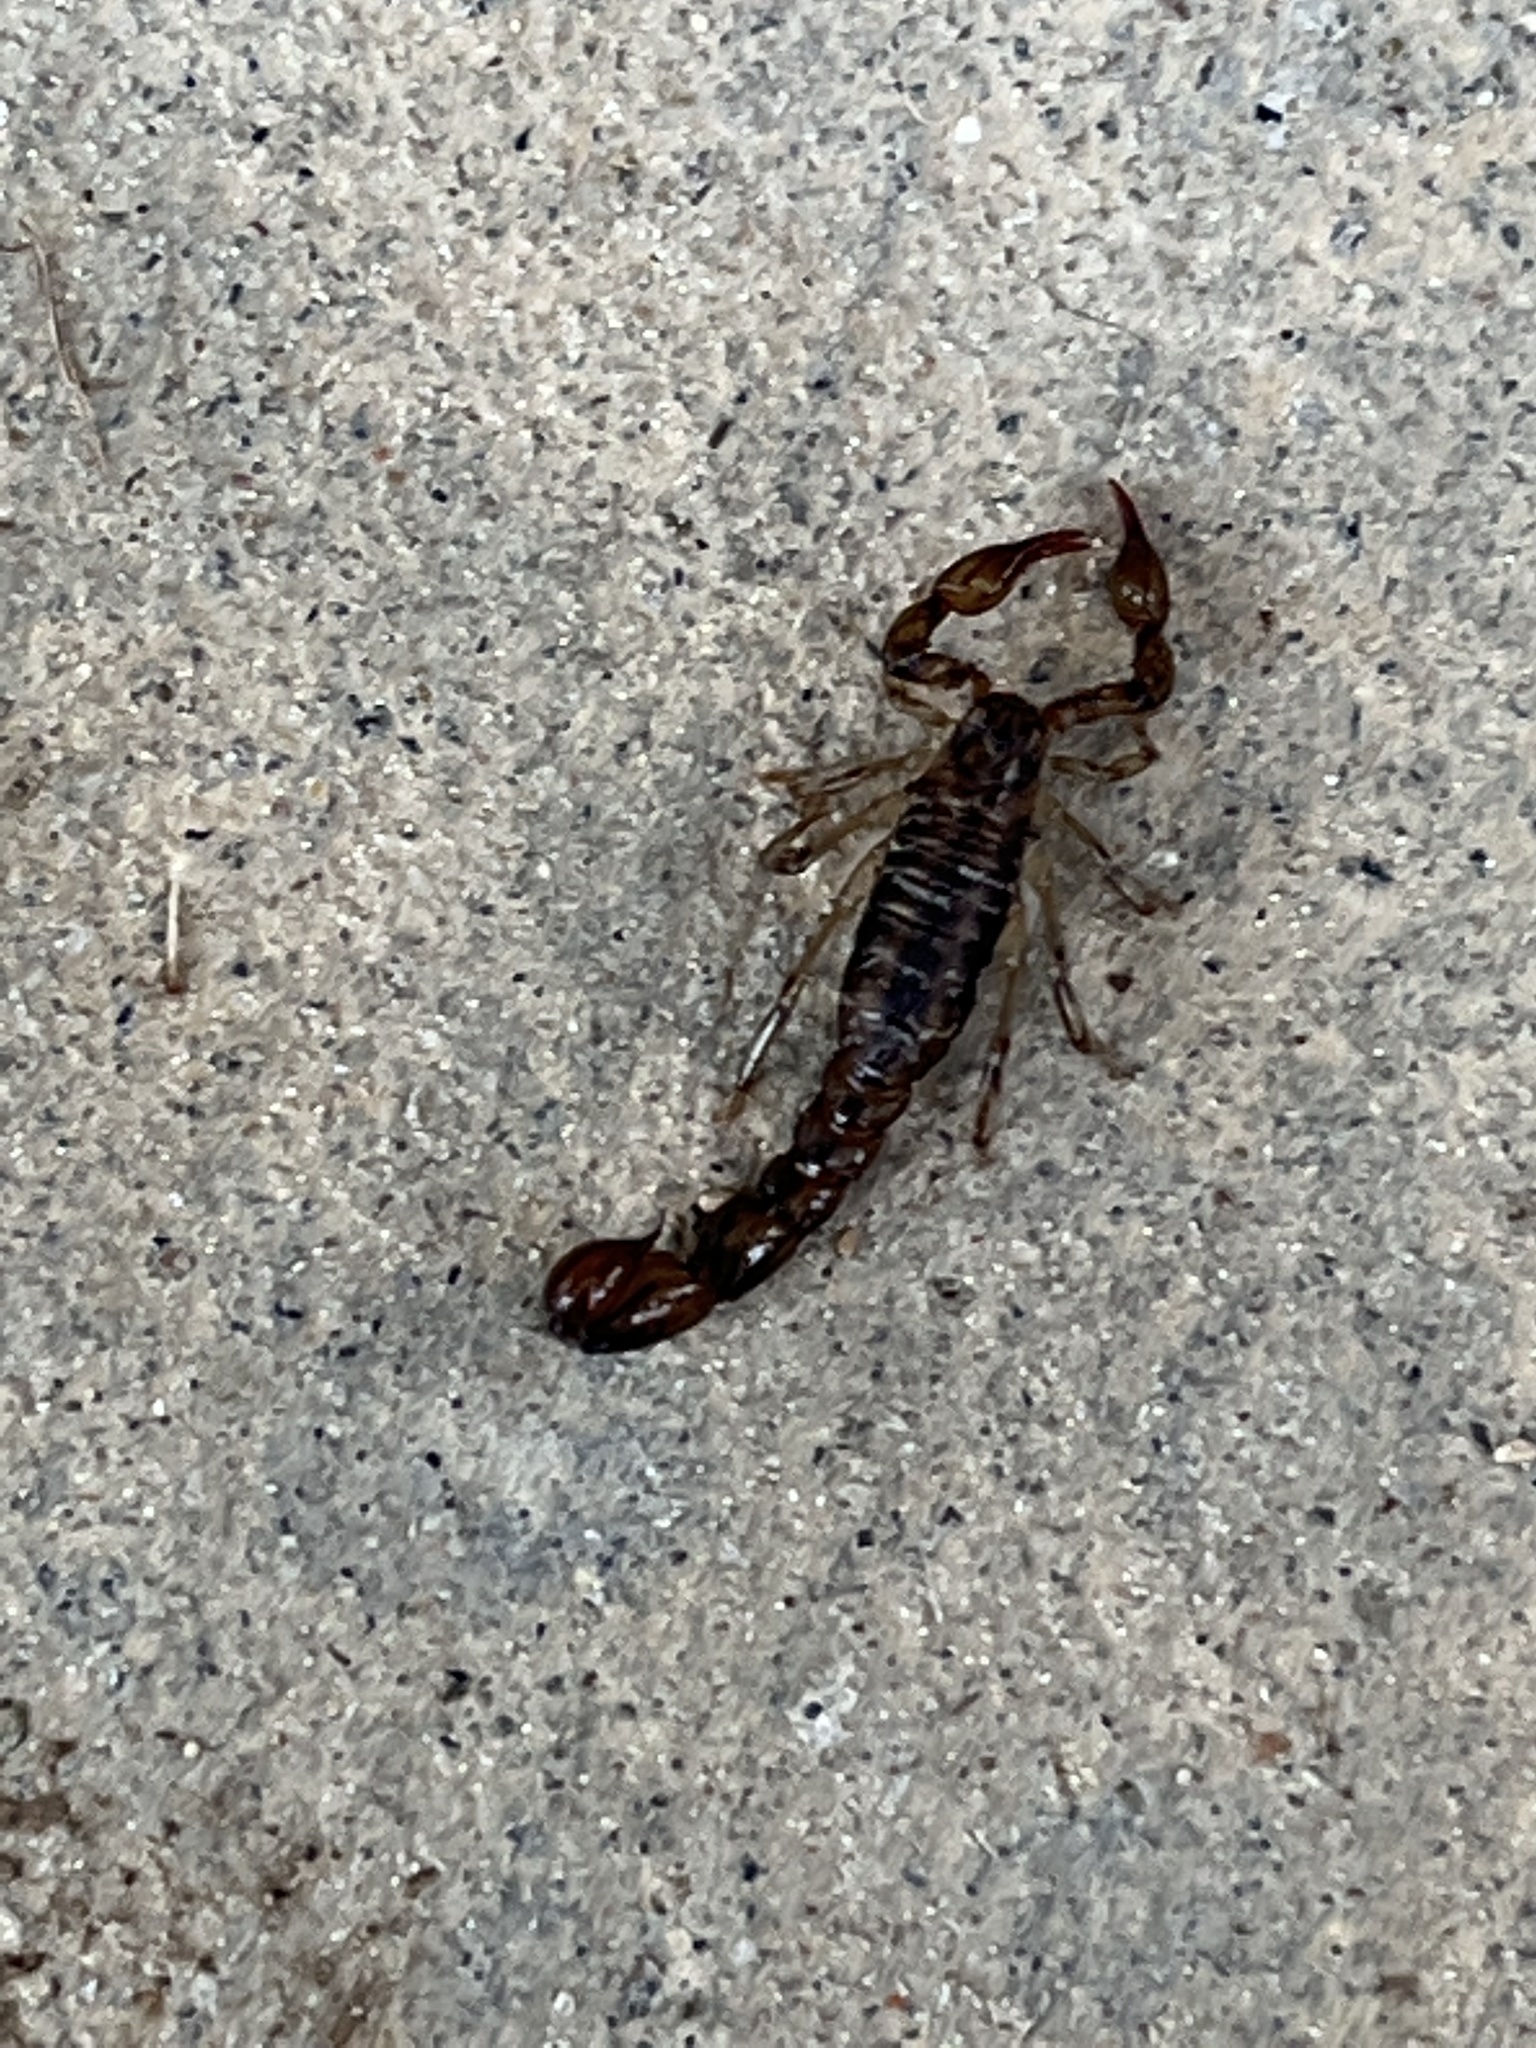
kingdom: Animalia
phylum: Arthropoda
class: Arachnida
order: Scorpiones
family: Superstitioniidae
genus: Superstitionia
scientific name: Superstitionia donensis
